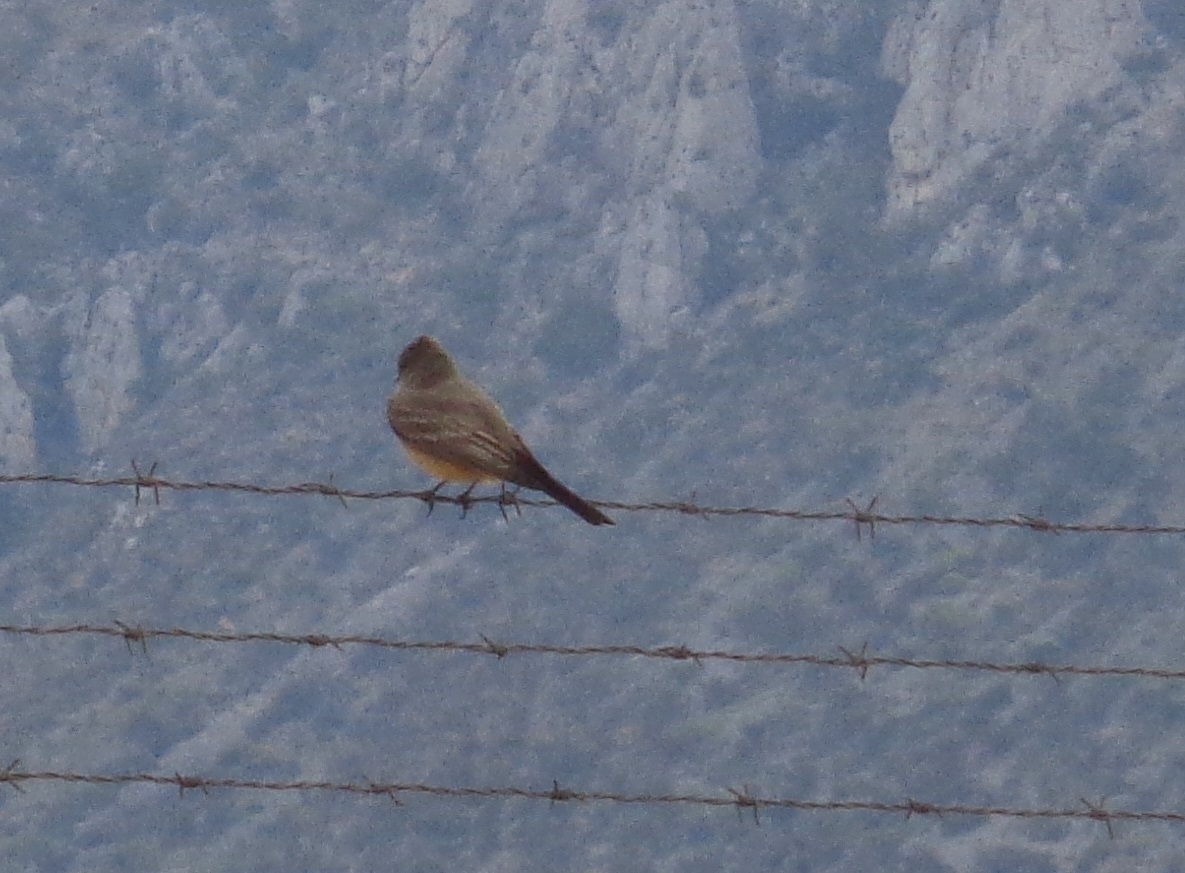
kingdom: Animalia
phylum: Chordata
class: Aves
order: Passeriformes
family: Tyrannidae
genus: Sayornis
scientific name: Sayornis saya
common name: Say's phoebe
